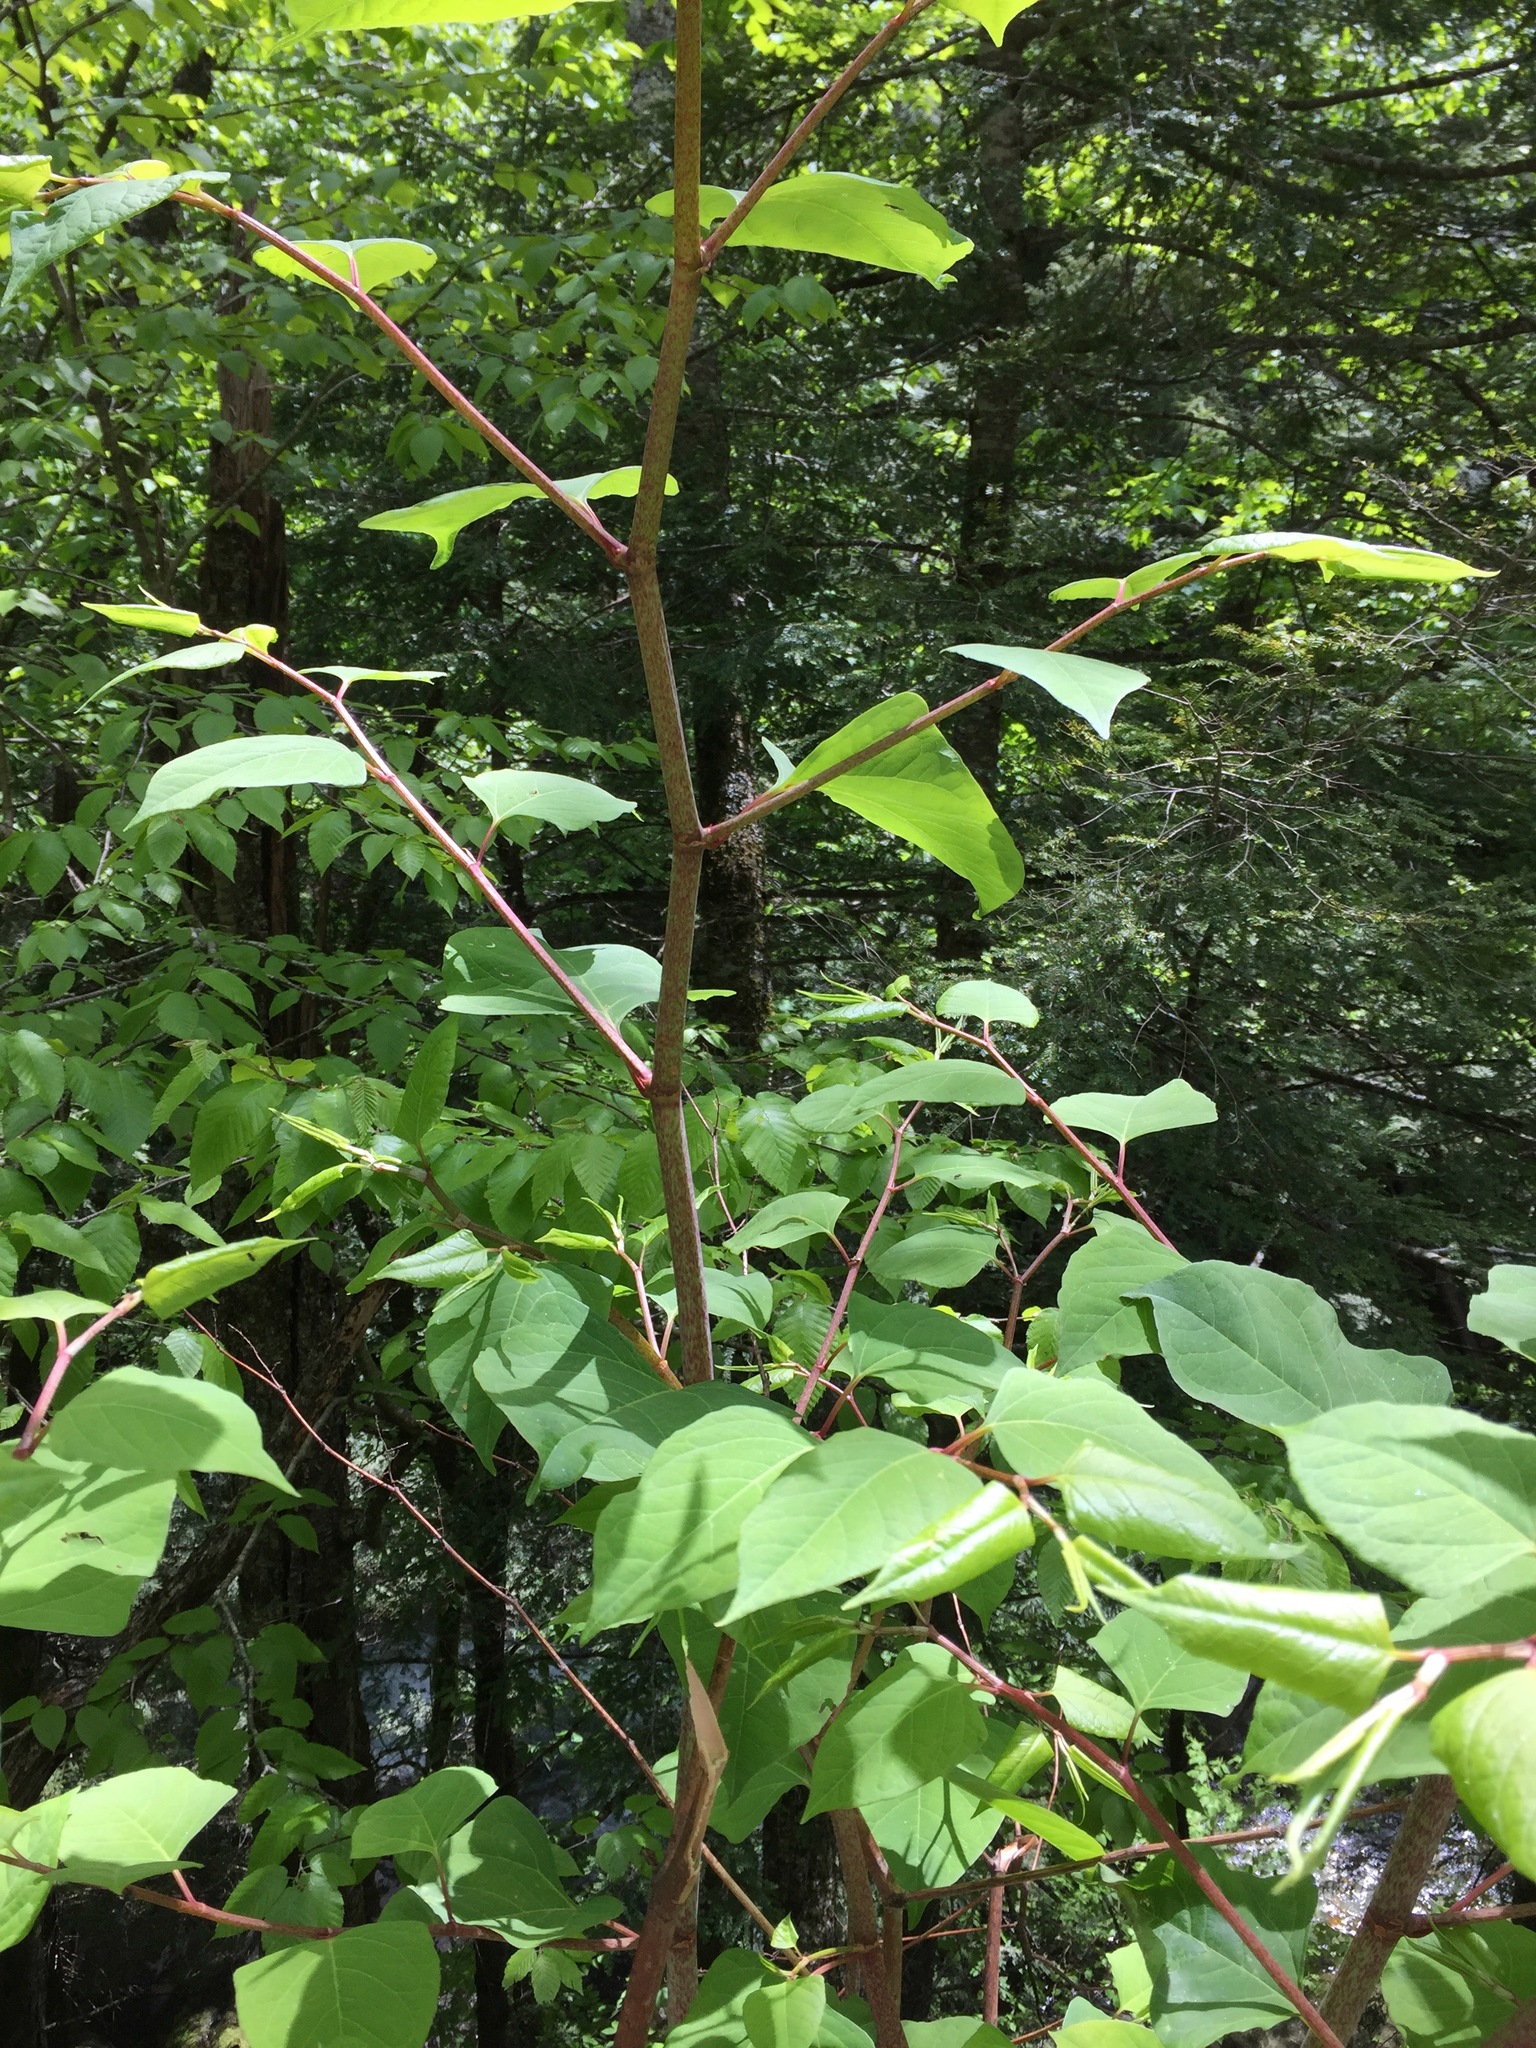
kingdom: Plantae
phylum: Tracheophyta
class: Magnoliopsida
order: Caryophyllales
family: Polygonaceae
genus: Reynoutria
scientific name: Reynoutria japonica
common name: Japanese knotweed
